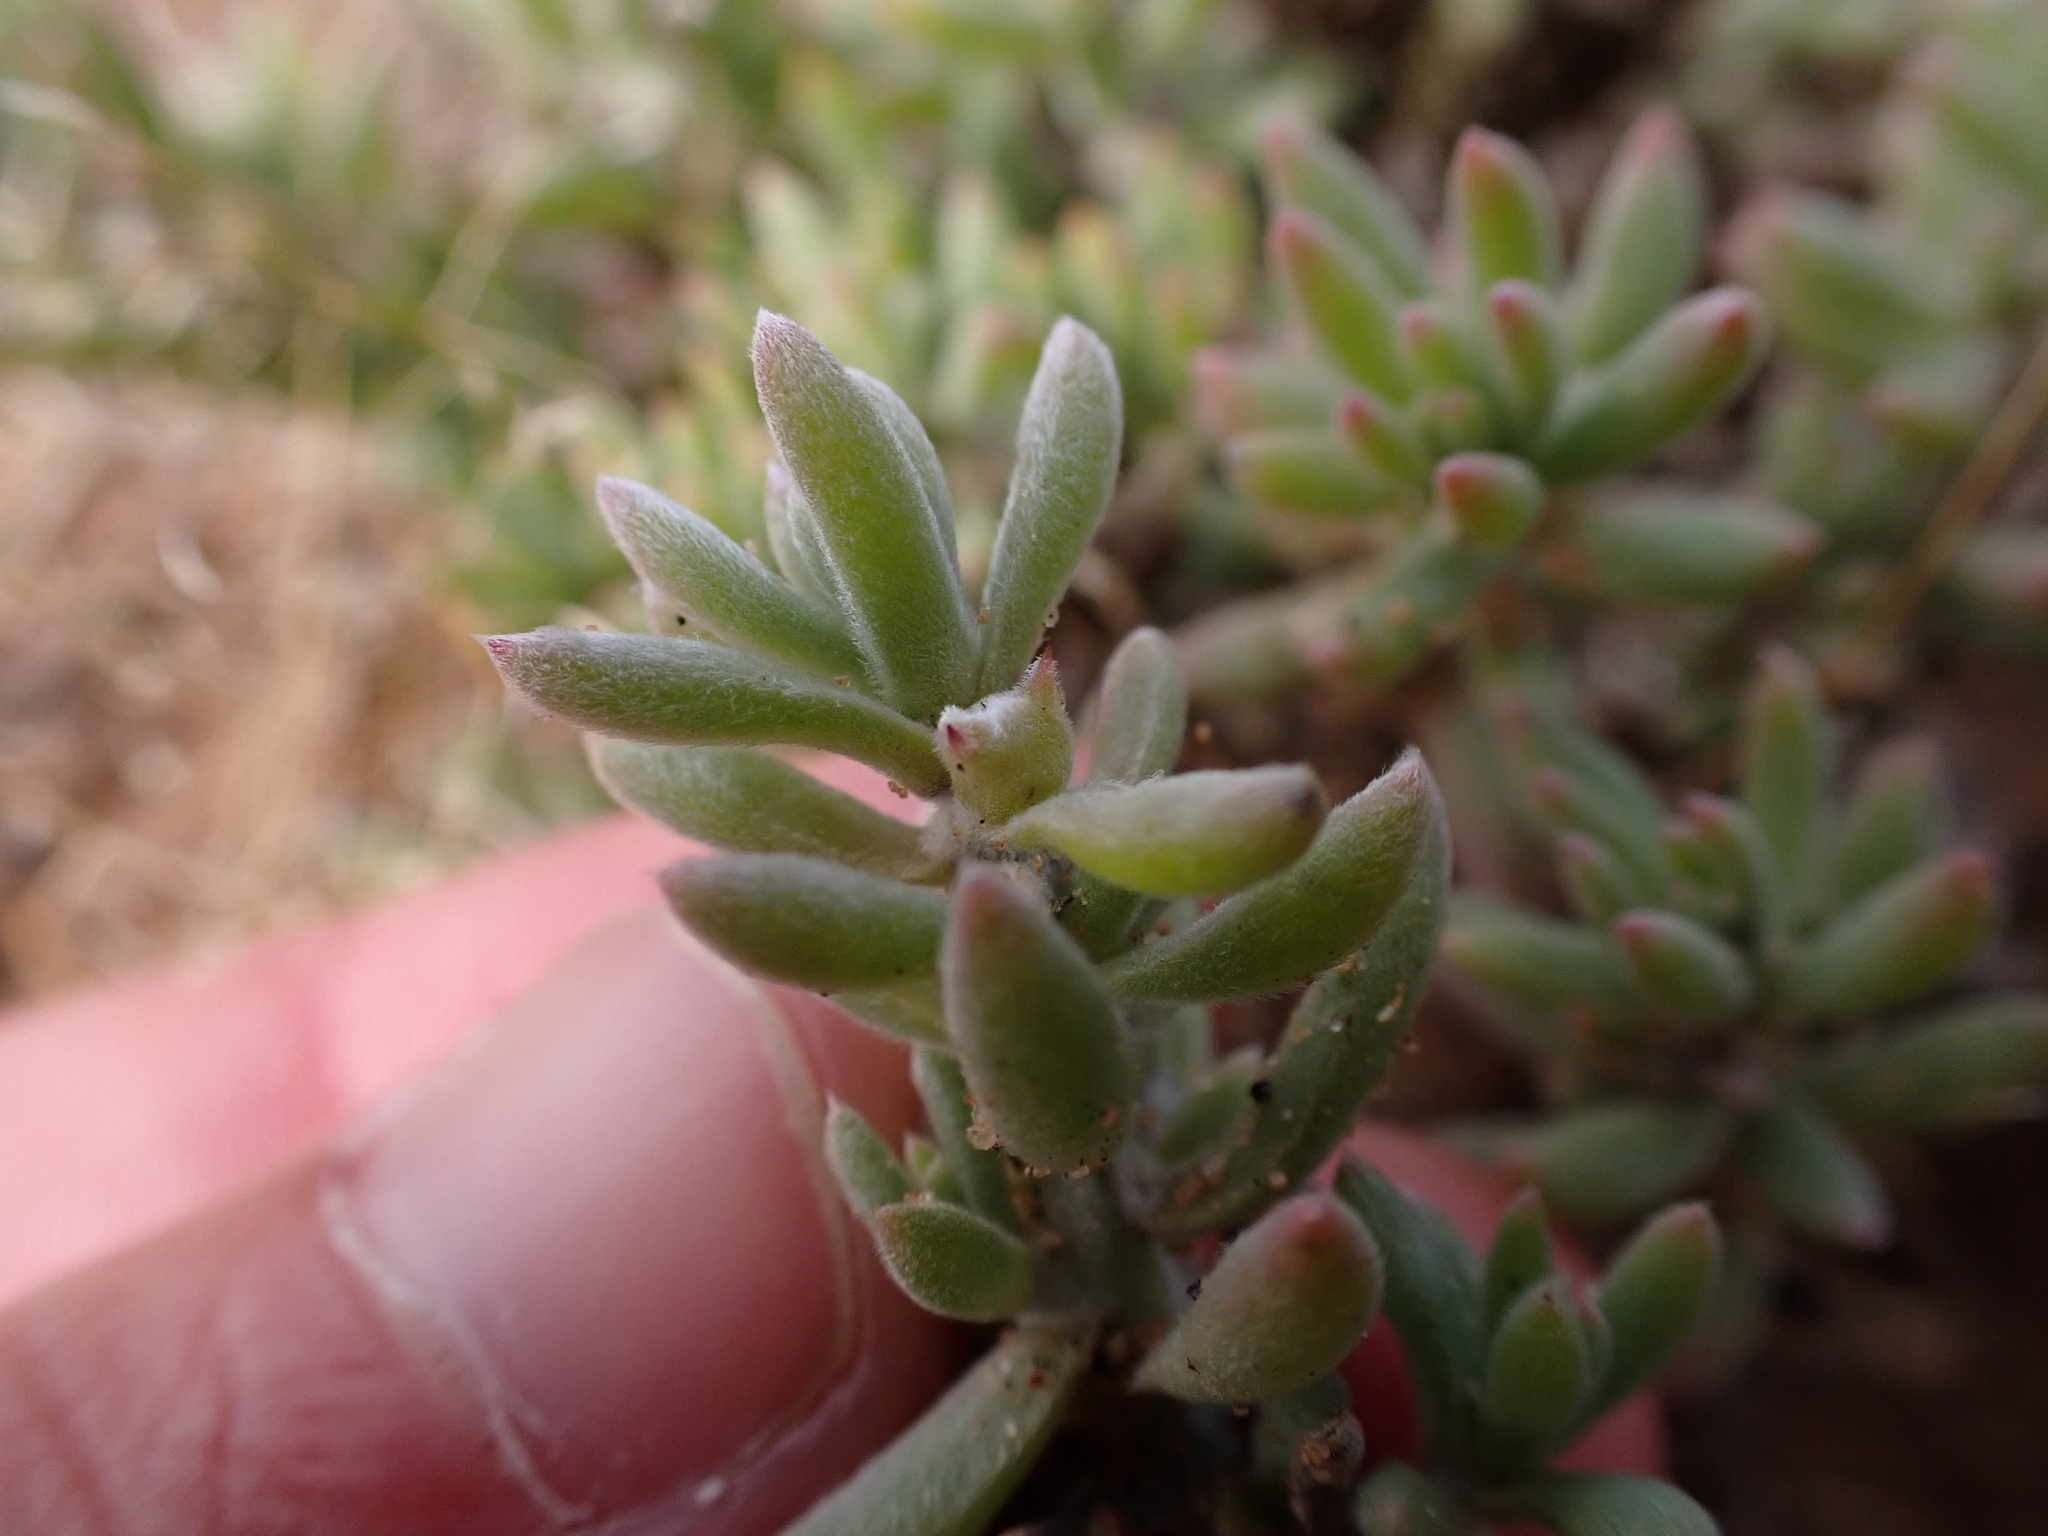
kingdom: Plantae
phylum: Tracheophyta
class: Magnoliopsida
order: Caryophyllales
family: Amaranthaceae
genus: Sclerolaena
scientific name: Sclerolaena diacantha
